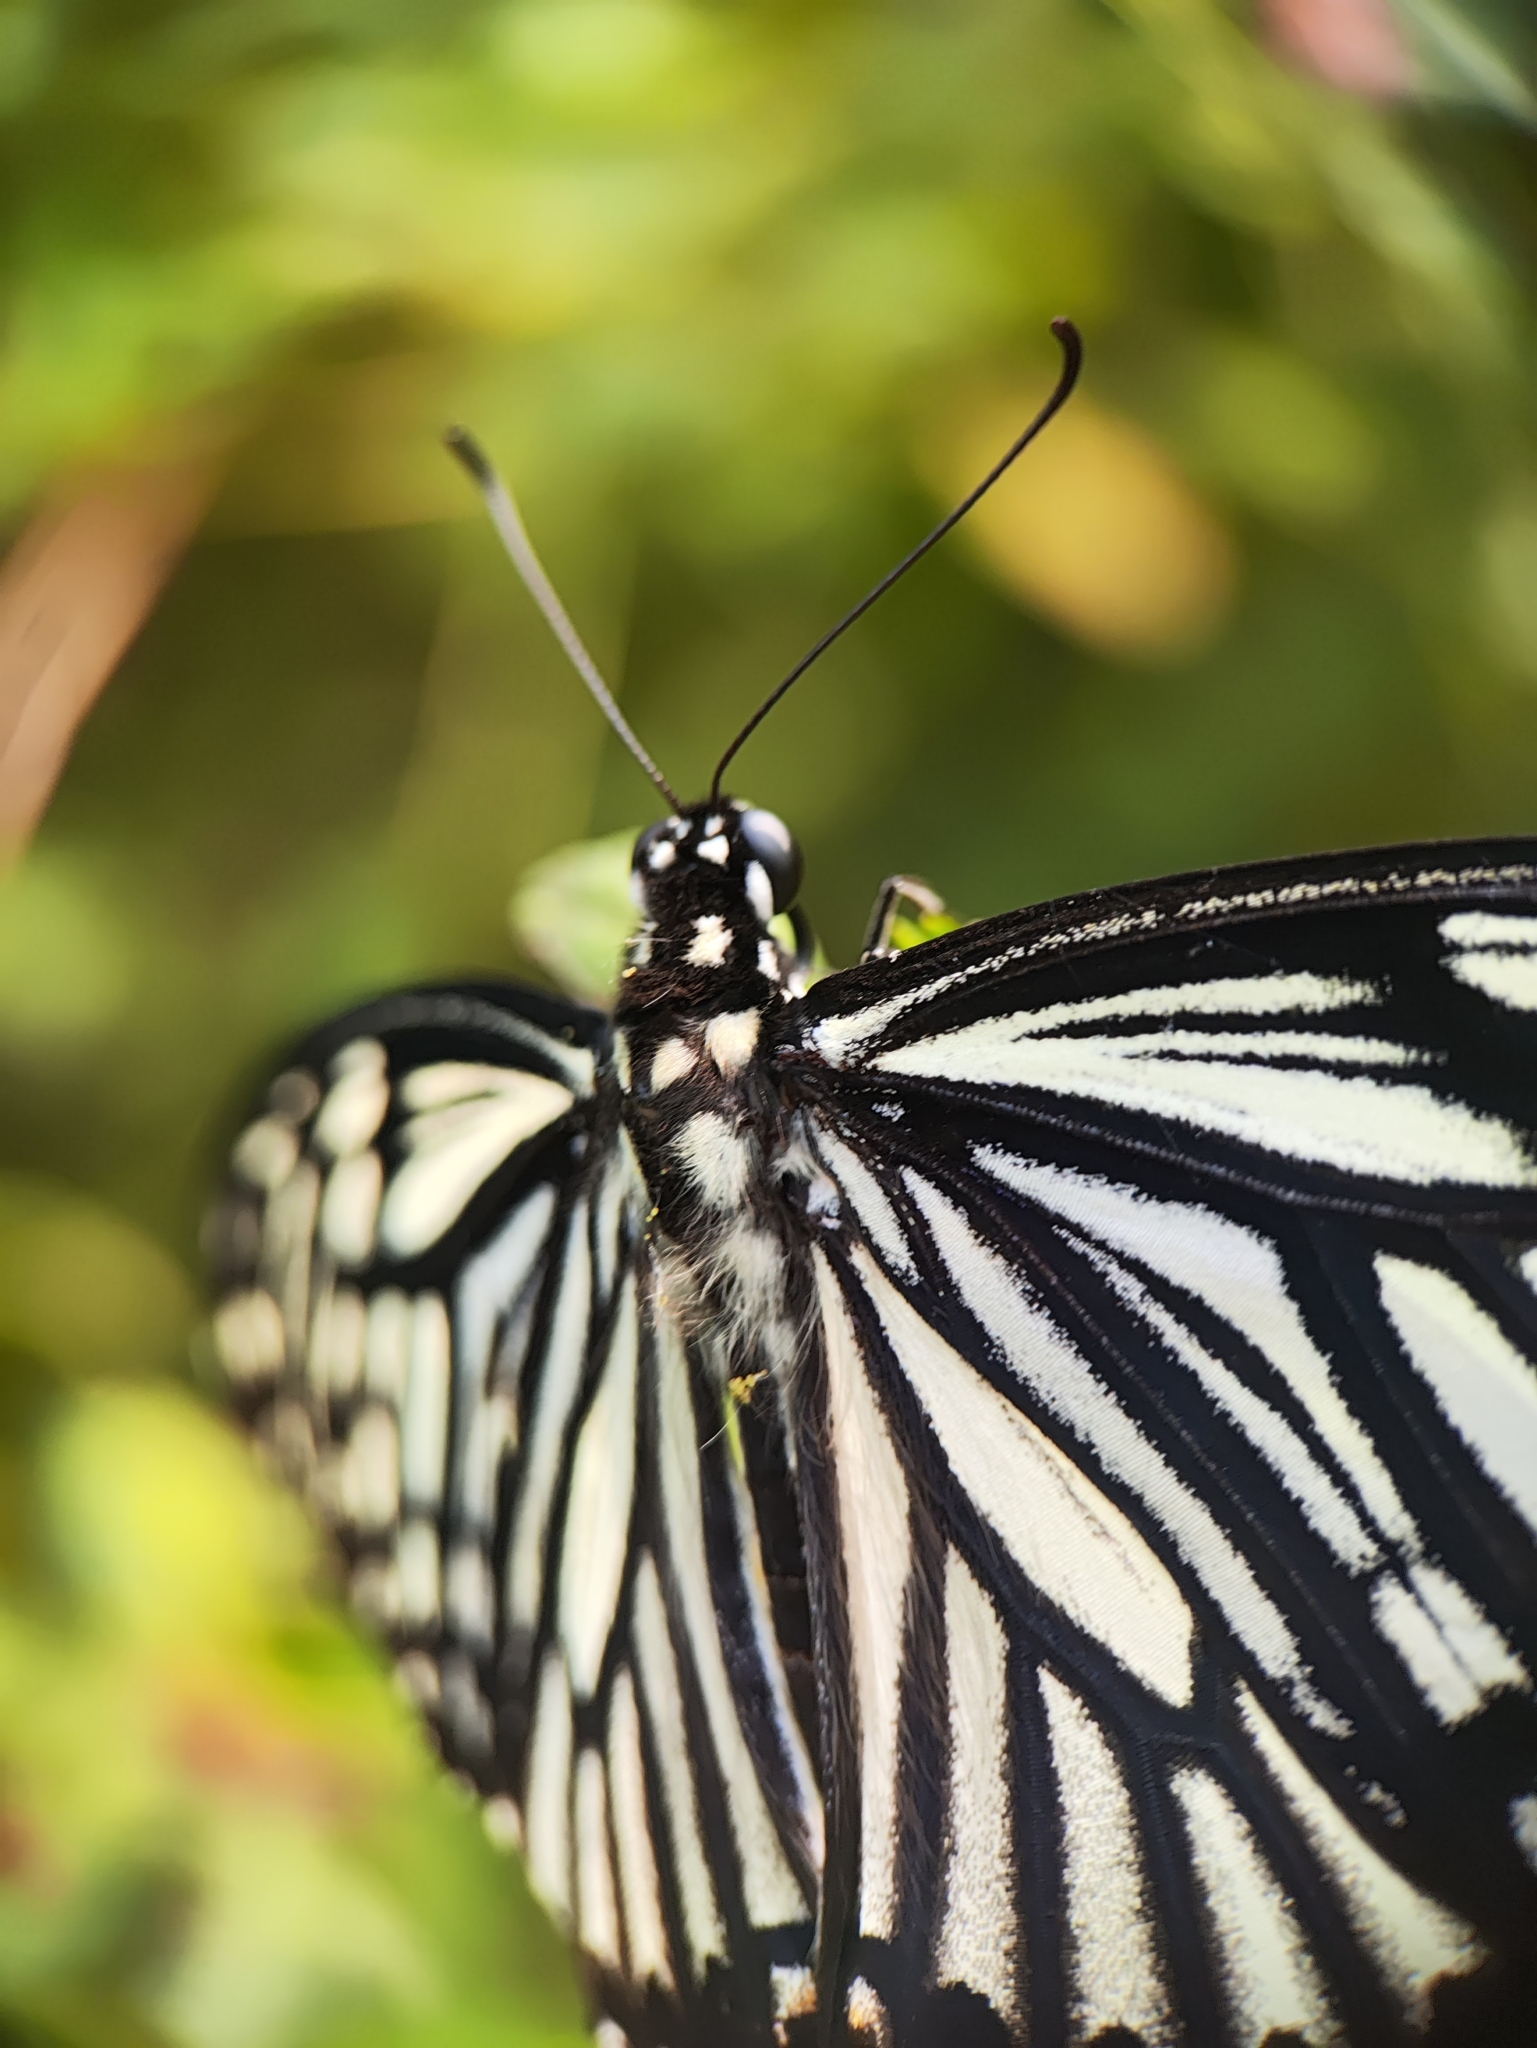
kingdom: Animalia
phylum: Arthropoda
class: Insecta
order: Lepidoptera
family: Papilionidae
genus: Chilasa
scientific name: Chilasa clytia
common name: Common mime
